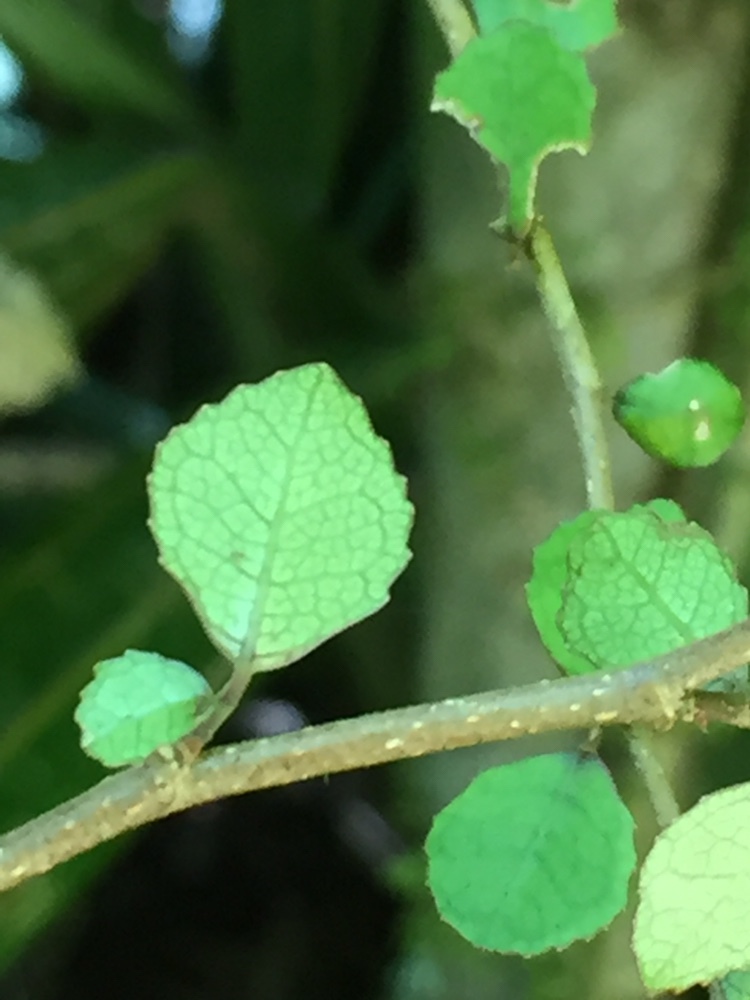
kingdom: Plantae
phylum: Tracheophyta
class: Magnoliopsida
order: Rosales
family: Moraceae
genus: Paratrophis
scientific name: Paratrophis microphylla
